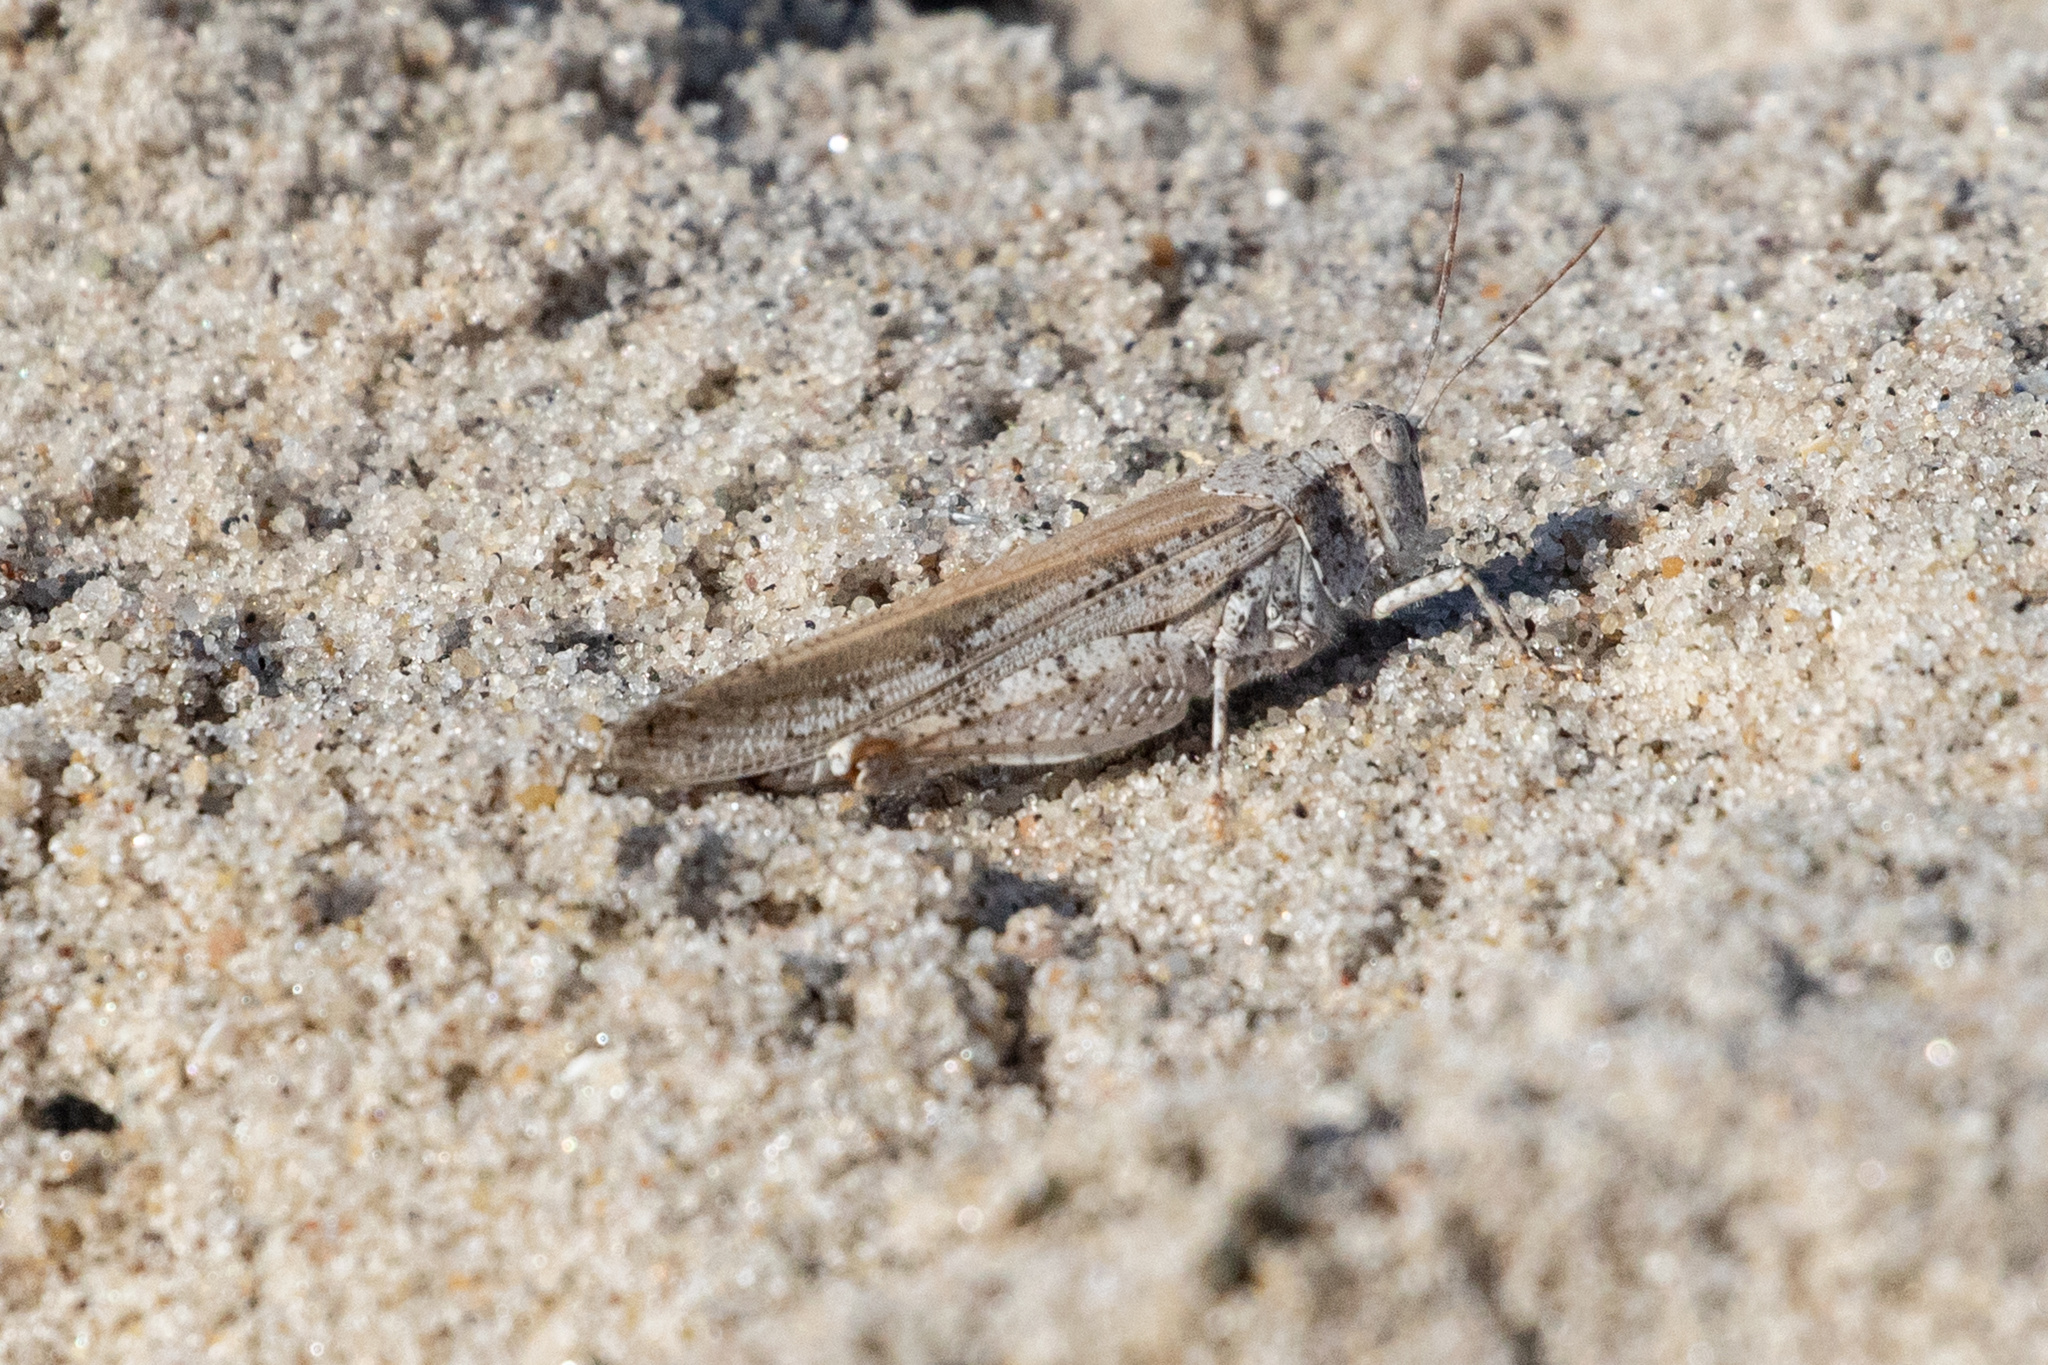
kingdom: Animalia
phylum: Arthropoda
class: Insecta
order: Orthoptera
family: Acrididae
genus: Trimerotropis
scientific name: Trimerotropis maritima
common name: Seaside locust
